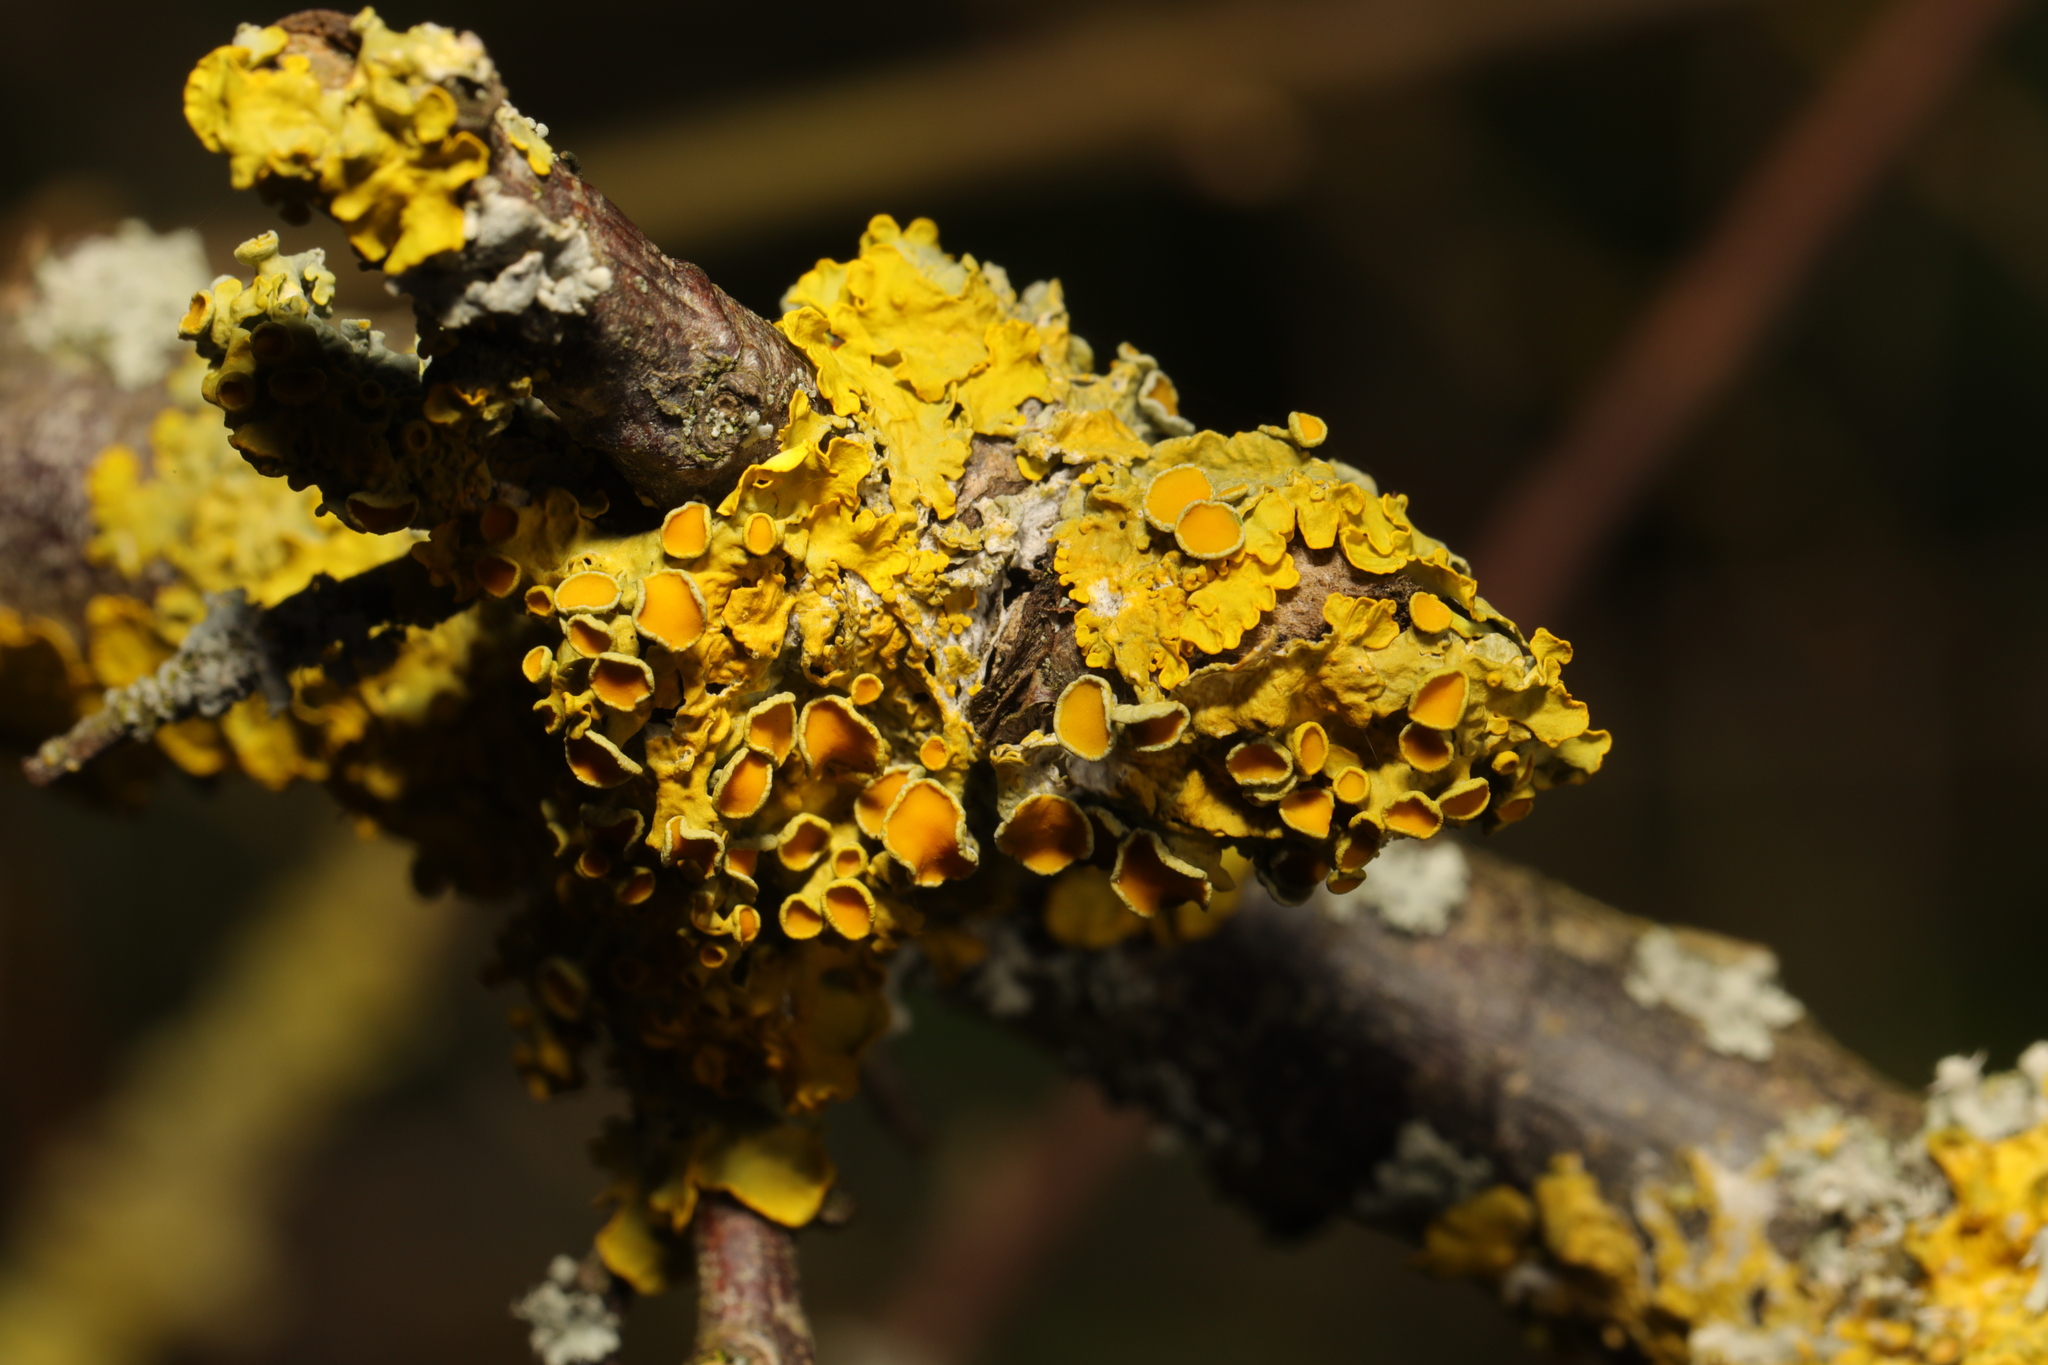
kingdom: Fungi
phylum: Ascomycota
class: Lecanoromycetes
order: Teloschistales
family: Teloschistaceae
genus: Xanthoria
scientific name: Xanthoria parietina
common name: Common orange lichen
